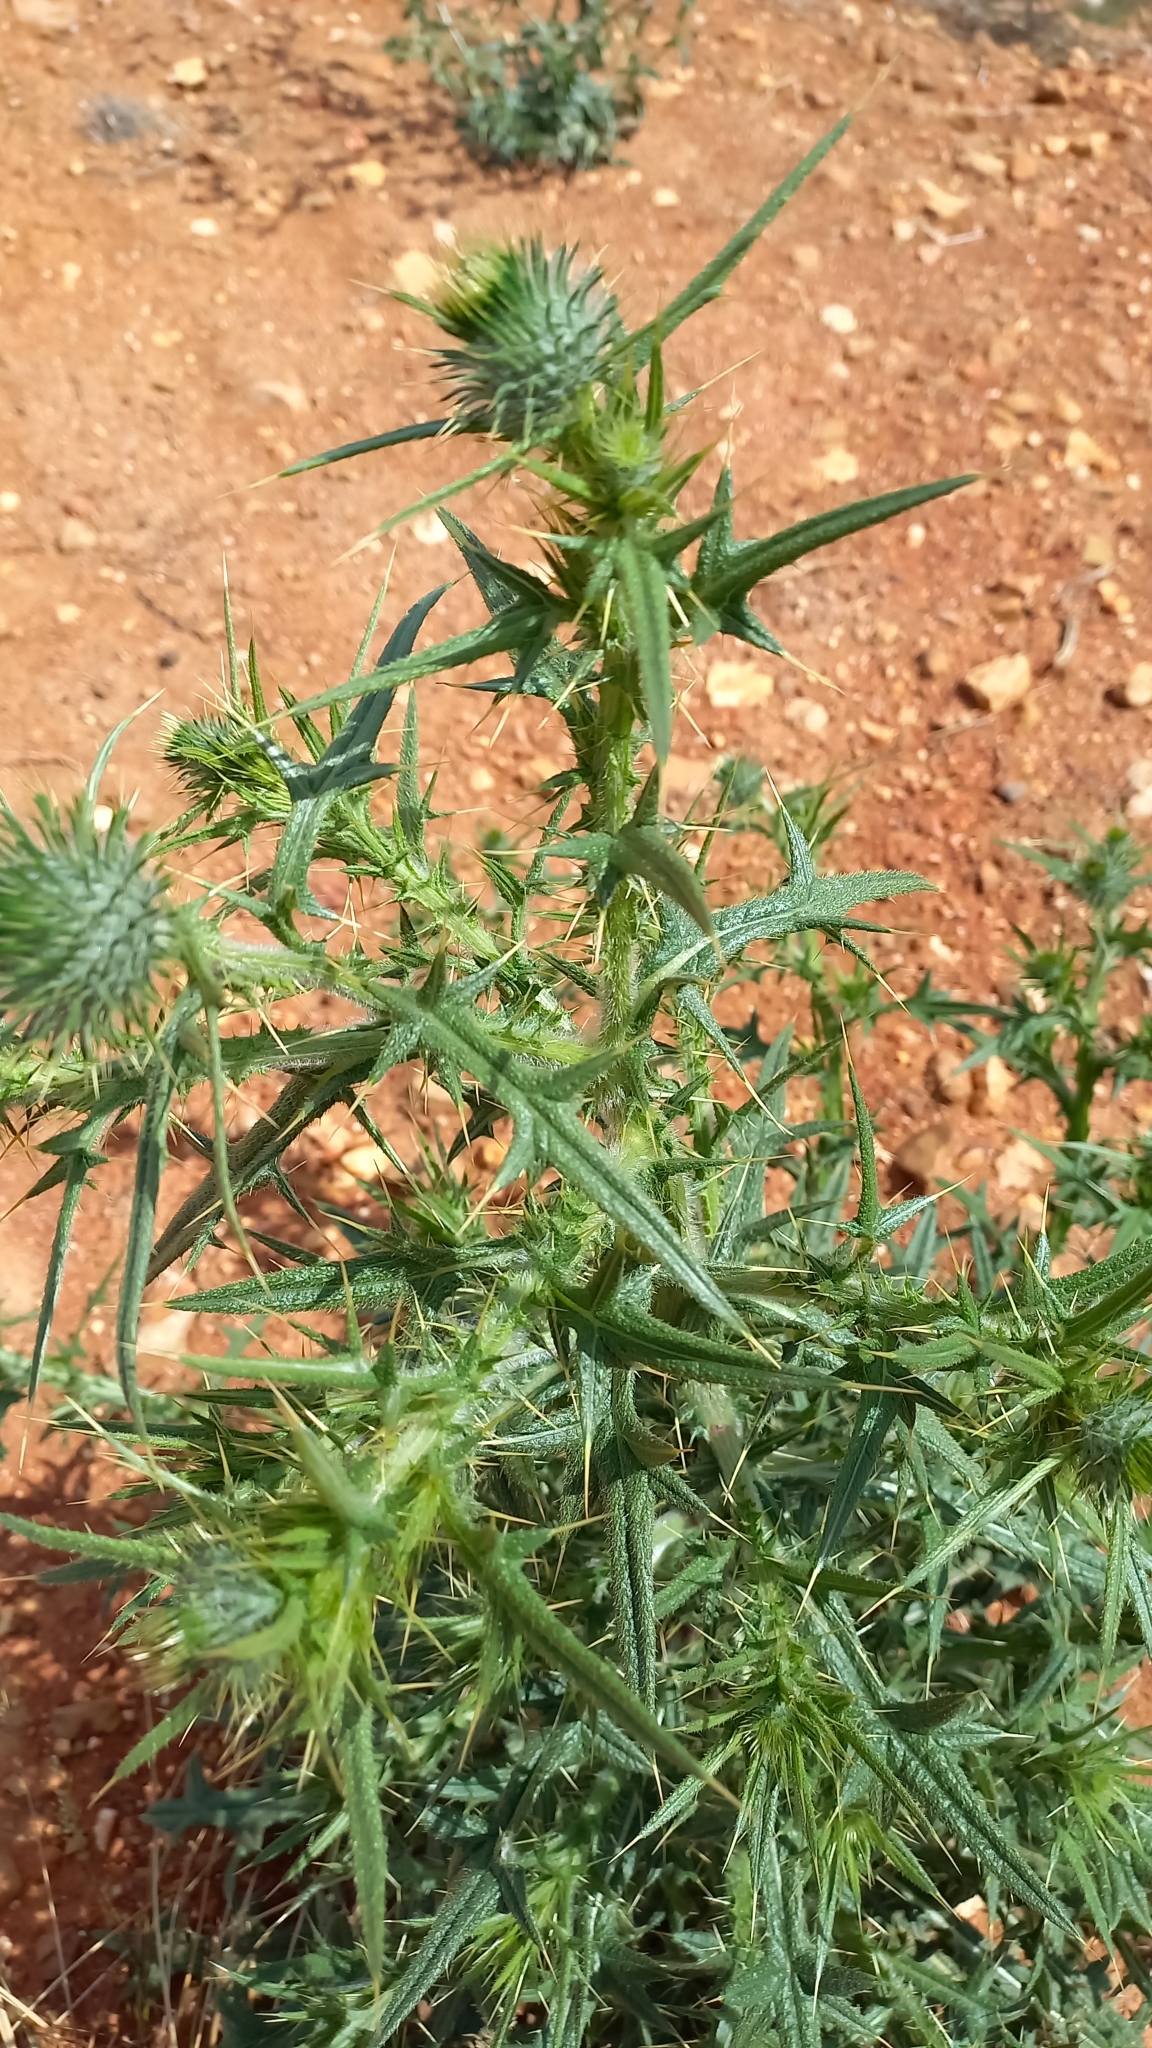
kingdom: Plantae
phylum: Tracheophyta
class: Magnoliopsida
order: Asterales
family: Asteraceae
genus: Cirsium
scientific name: Cirsium vulgare
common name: Bull thistle
